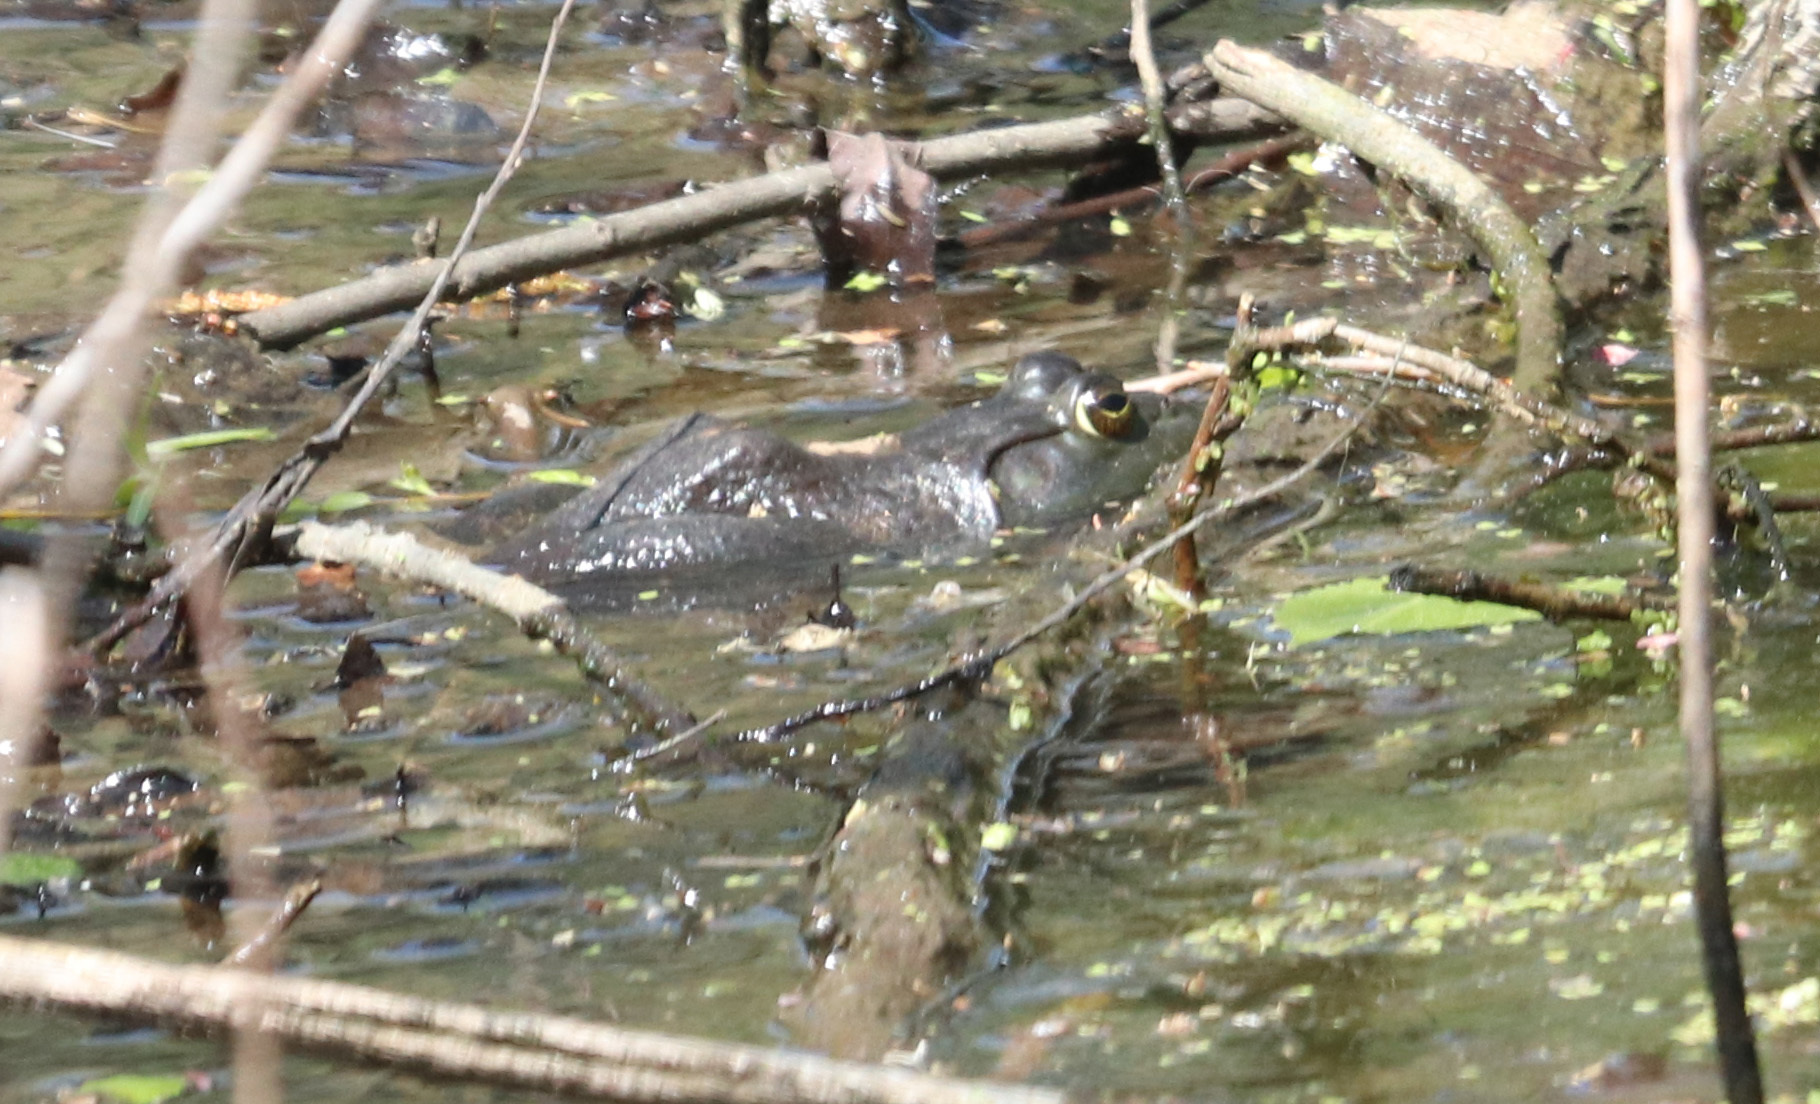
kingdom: Animalia
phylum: Chordata
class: Amphibia
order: Anura
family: Ranidae
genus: Lithobates
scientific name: Lithobates catesbeianus
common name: American bullfrog
